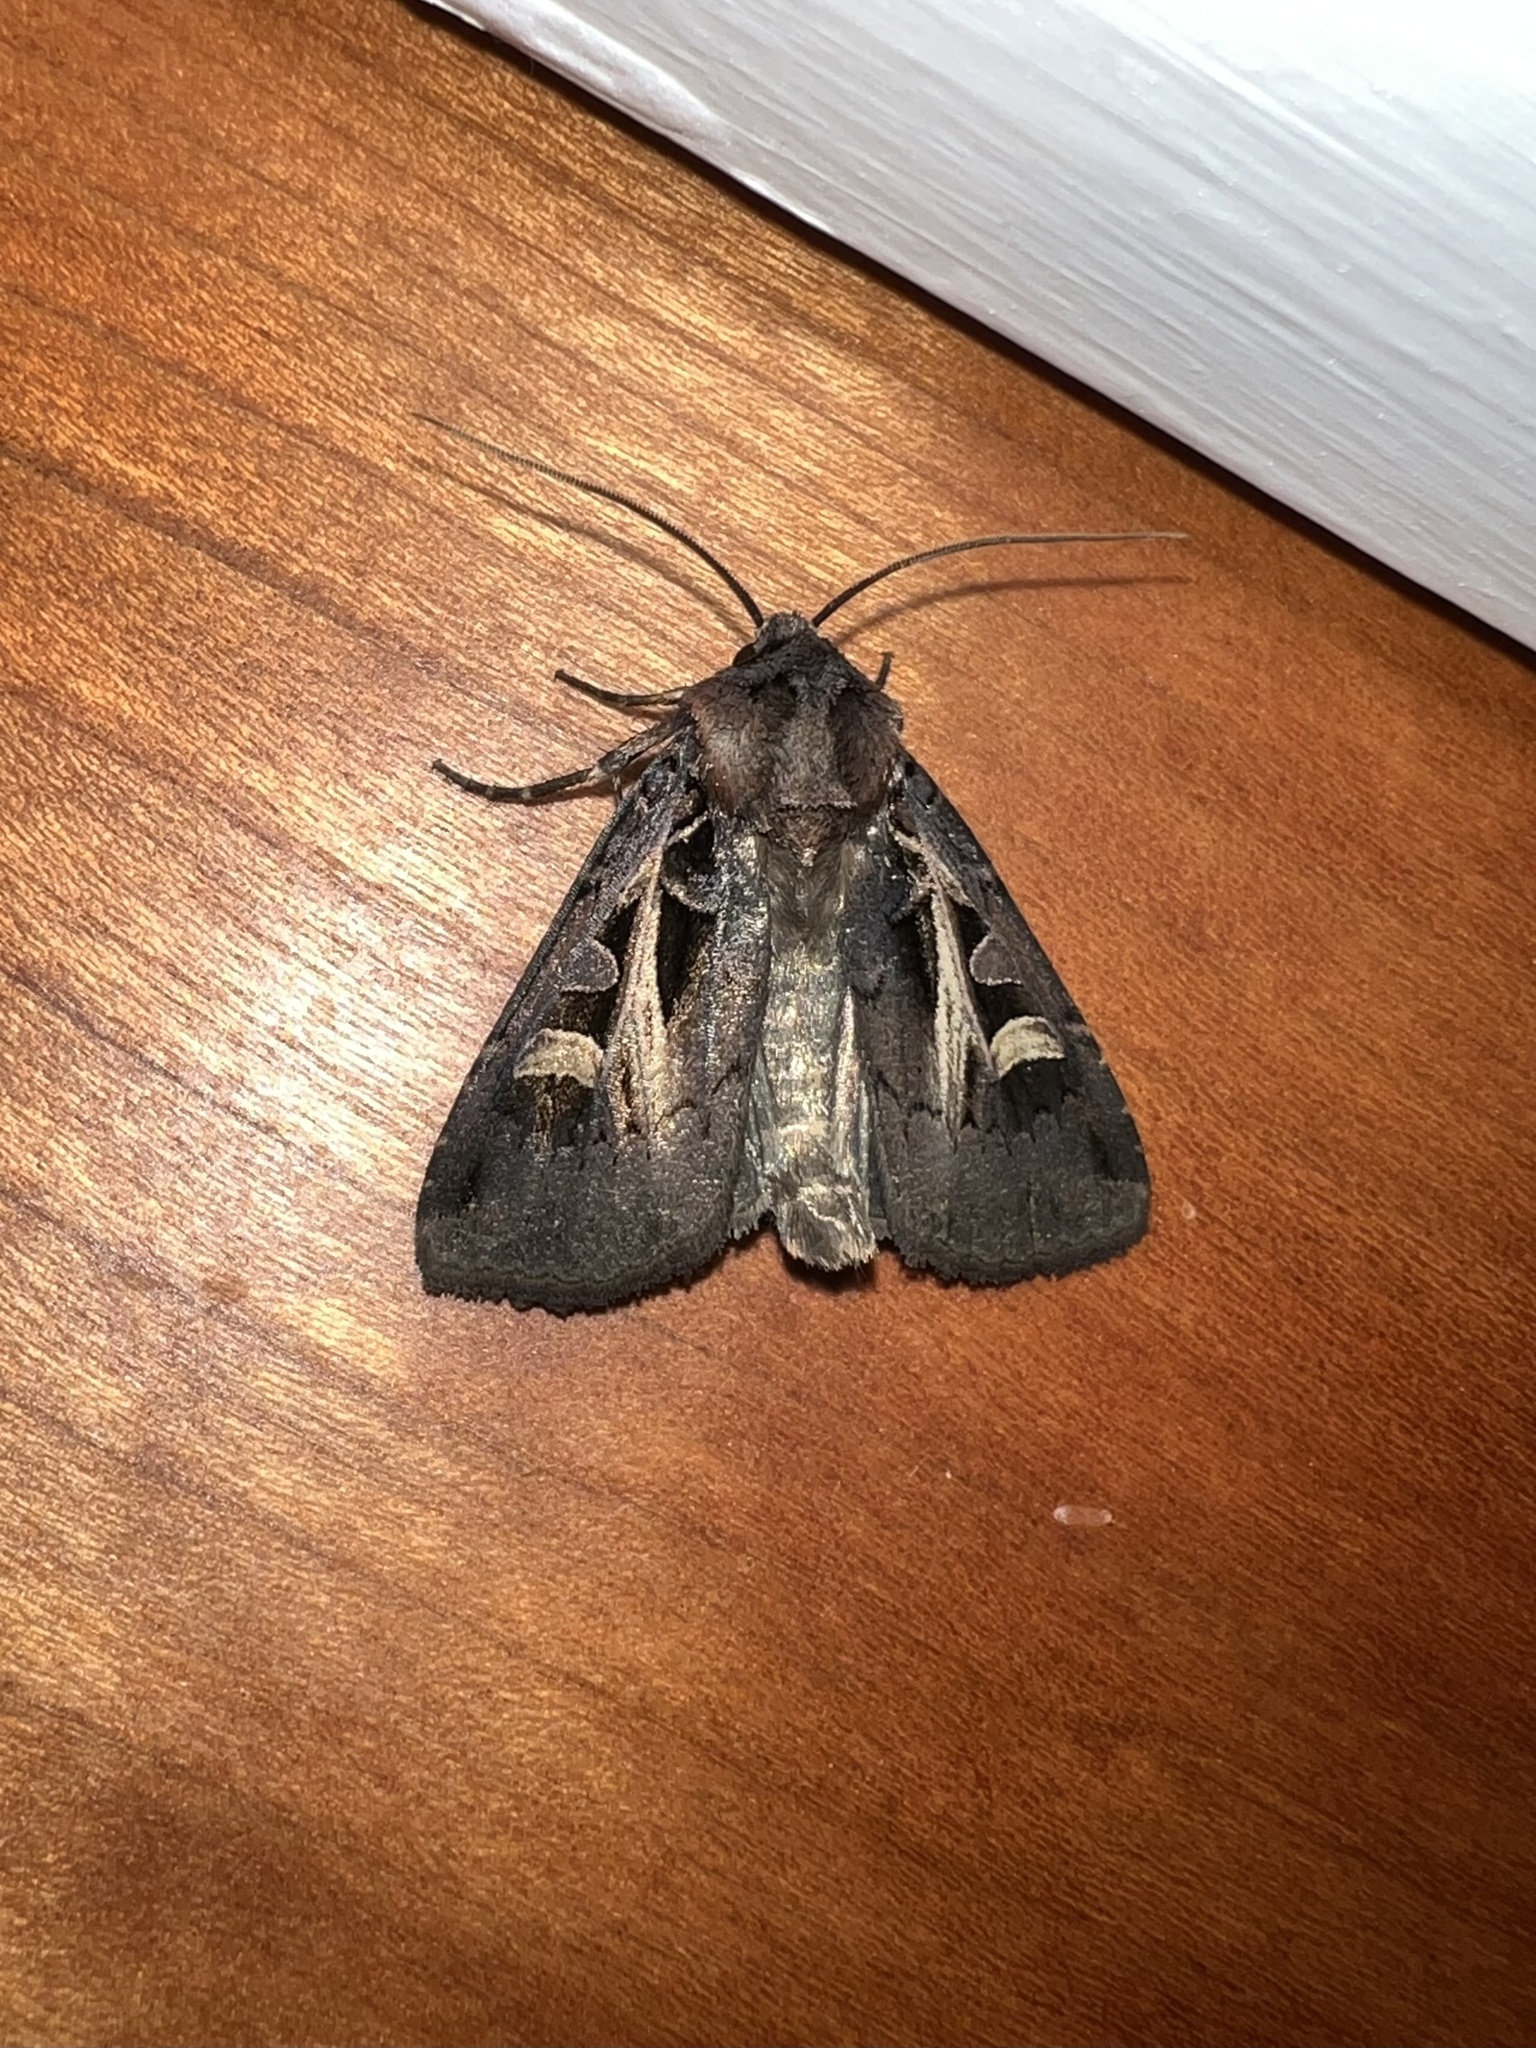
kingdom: Animalia
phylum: Arthropoda
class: Insecta
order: Lepidoptera
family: Noctuidae
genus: Feltia
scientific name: Feltia herilis
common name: Master's dart
